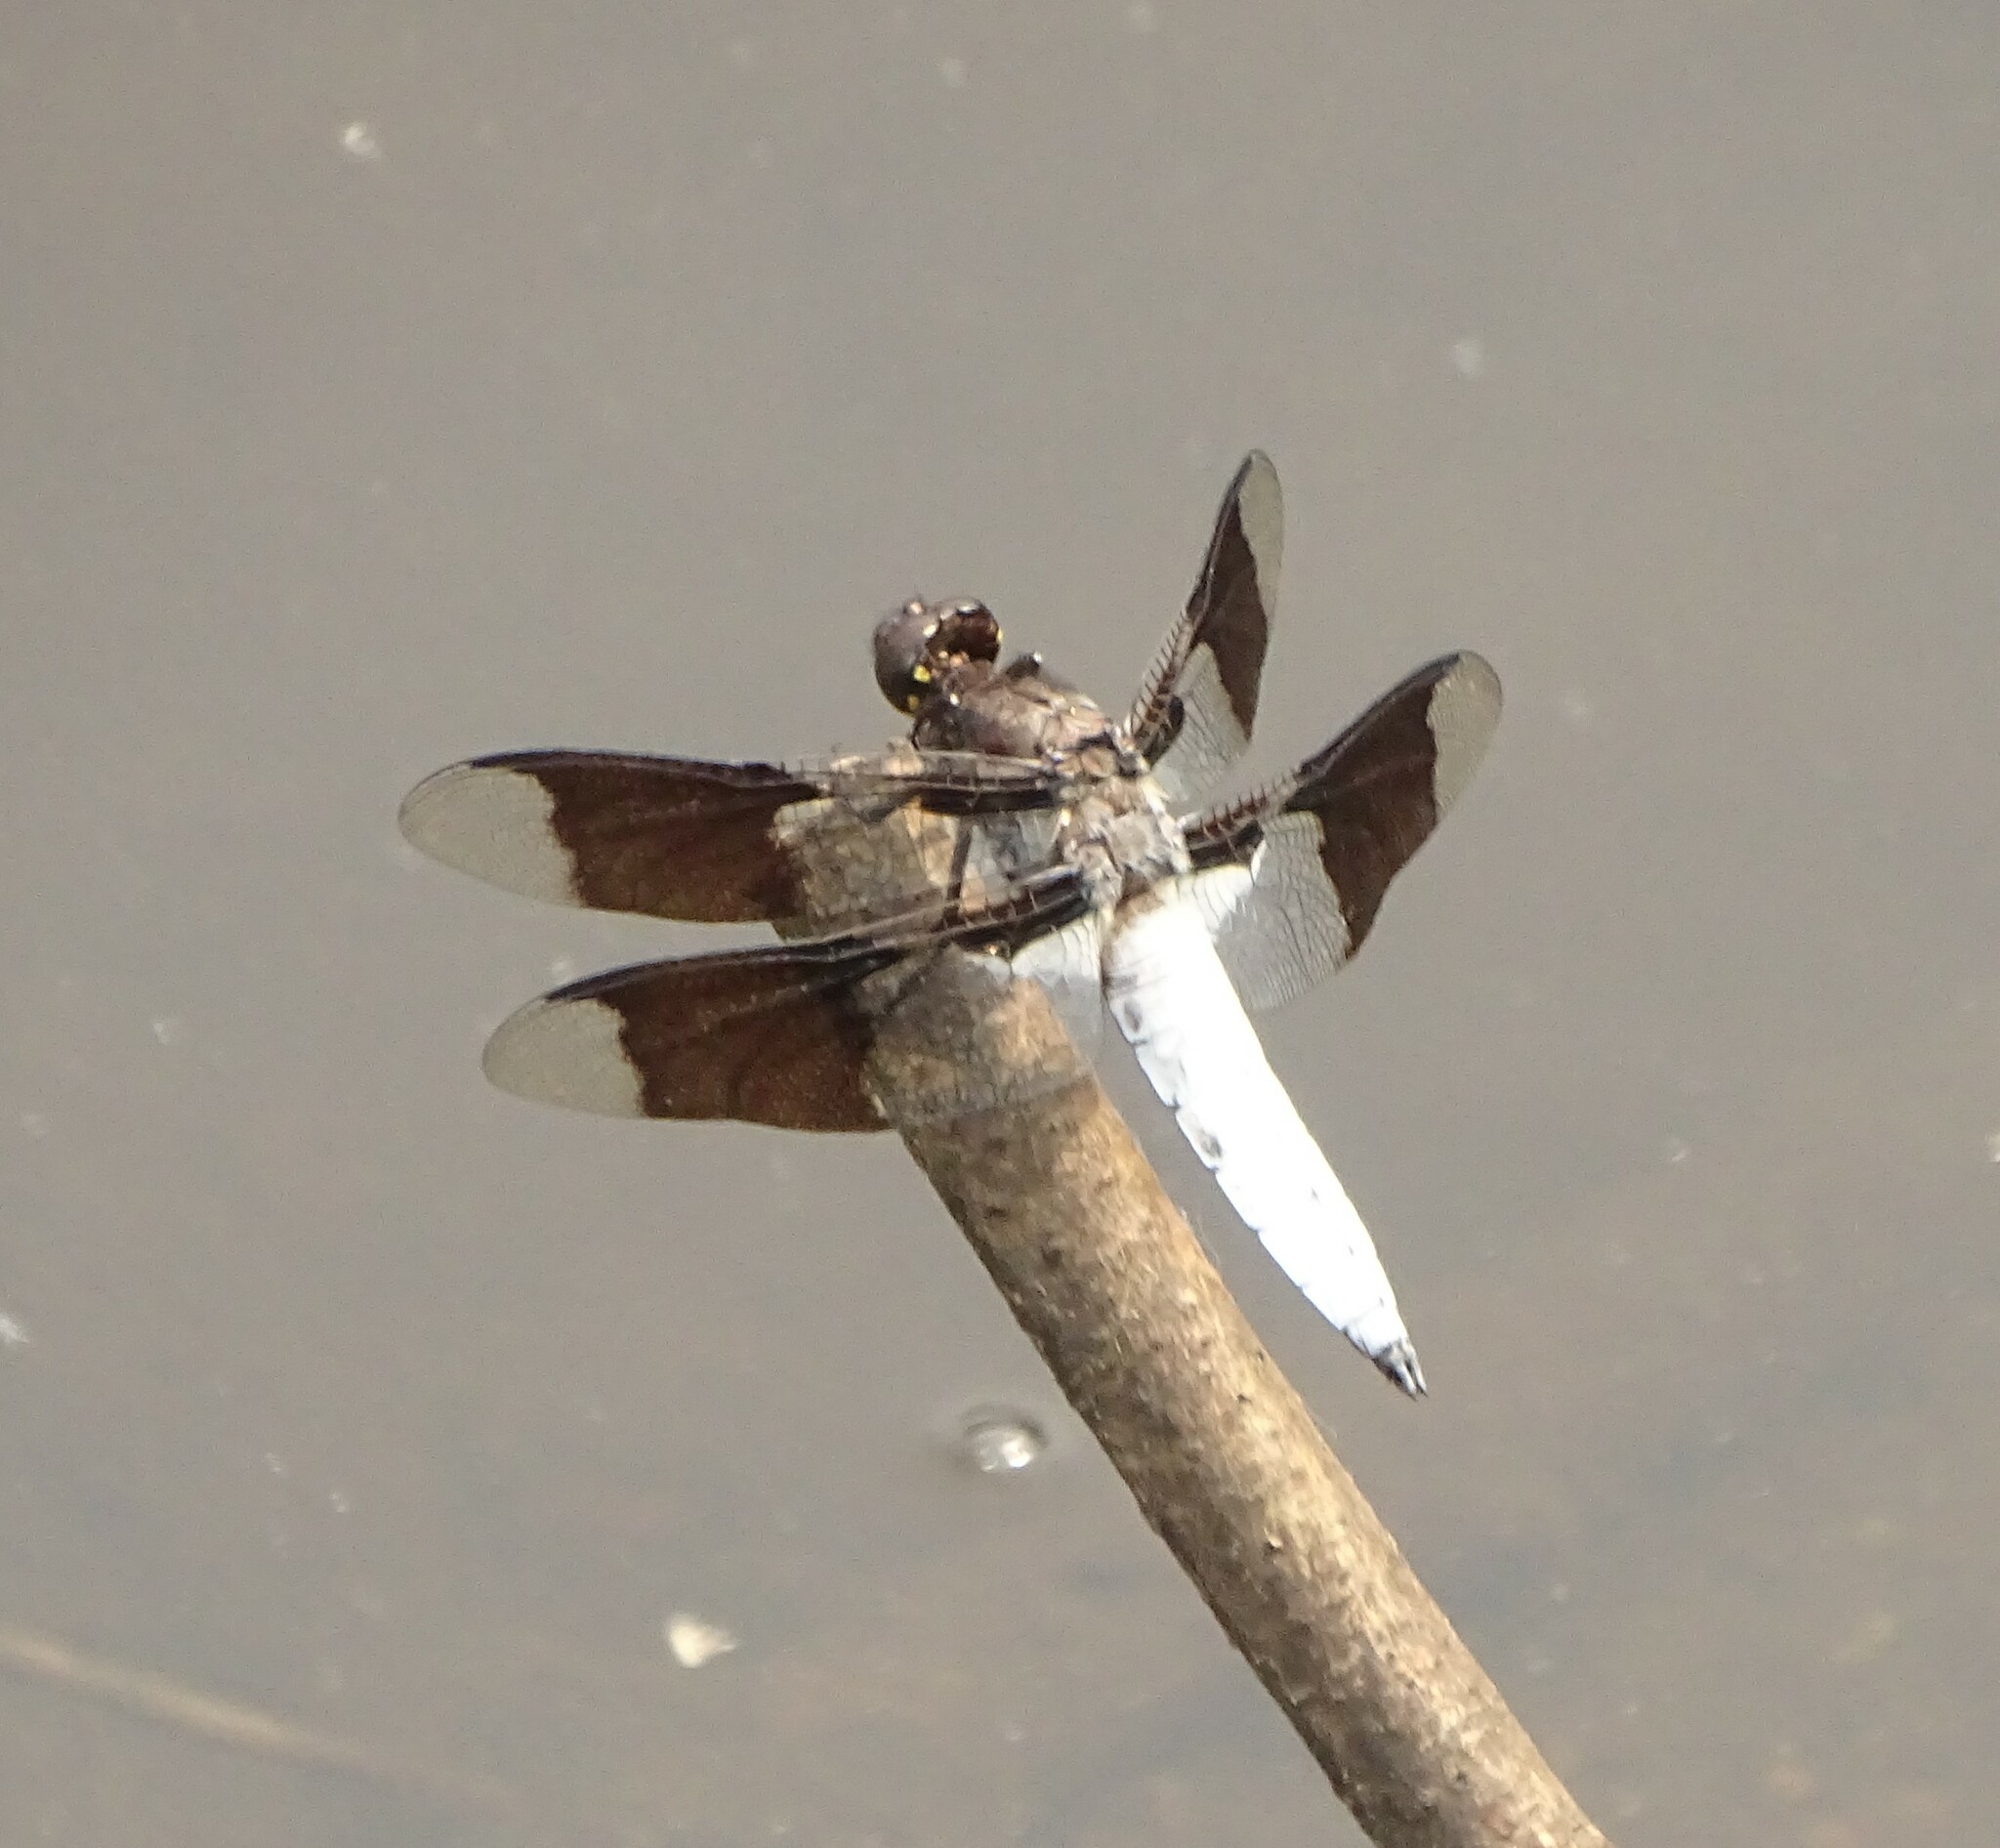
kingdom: Animalia
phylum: Arthropoda
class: Insecta
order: Odonata
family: Libellulidae
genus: Plathemis
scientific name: Plathemis lydia
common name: Common whitetail
